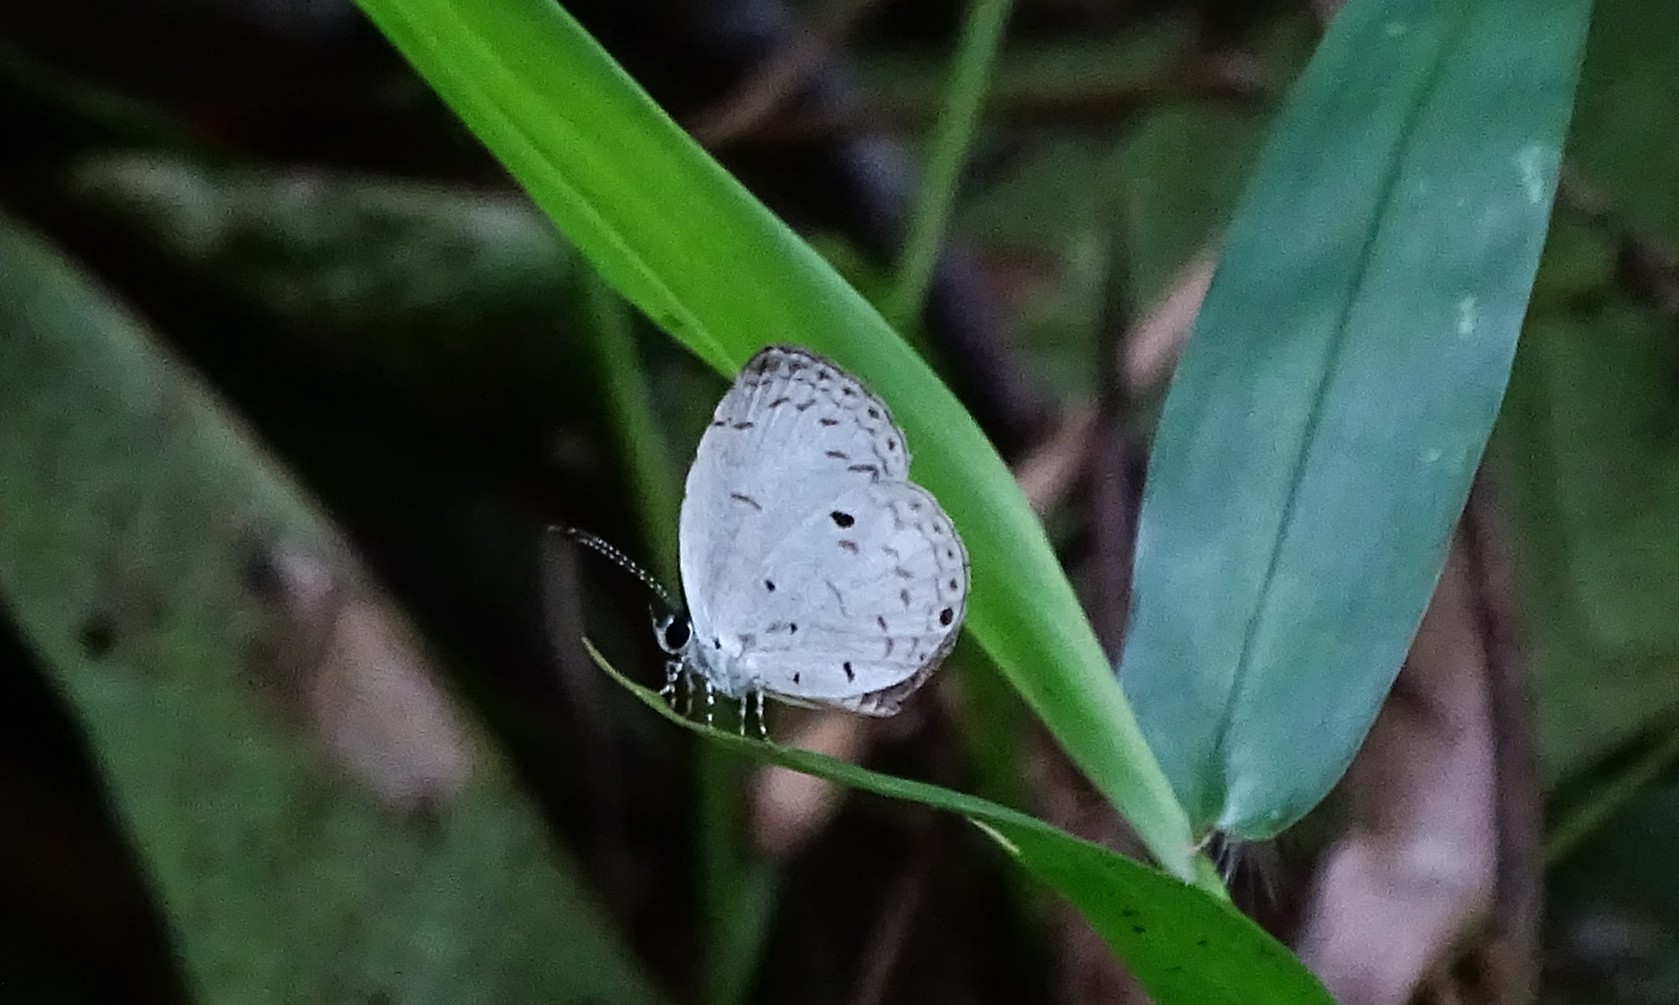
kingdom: Animalia
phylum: Arthropoda
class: Insecta
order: Lepidoptera
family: Lycaenidae
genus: Neopithecops
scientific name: Neopithecops zalmora
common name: Quaker
